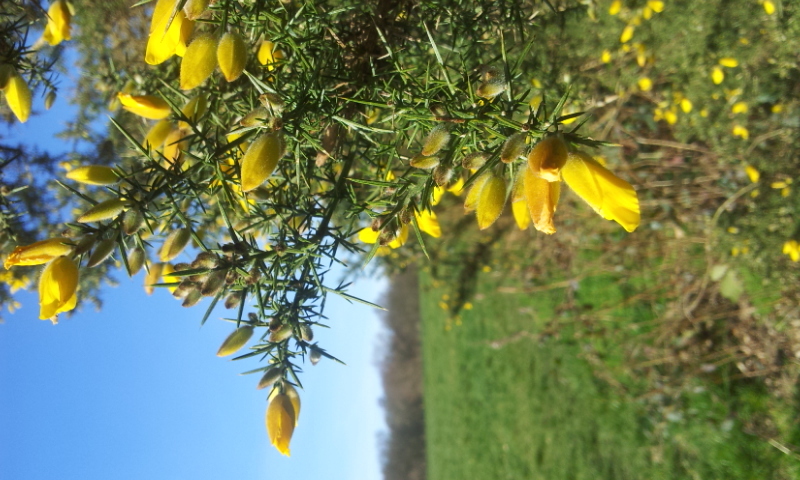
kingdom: Plantae
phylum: Tracheophyta
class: Magnoliopsida
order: Fabales
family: Fabaceae
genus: Ulex
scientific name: Ulex europaeus
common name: Common gorse
